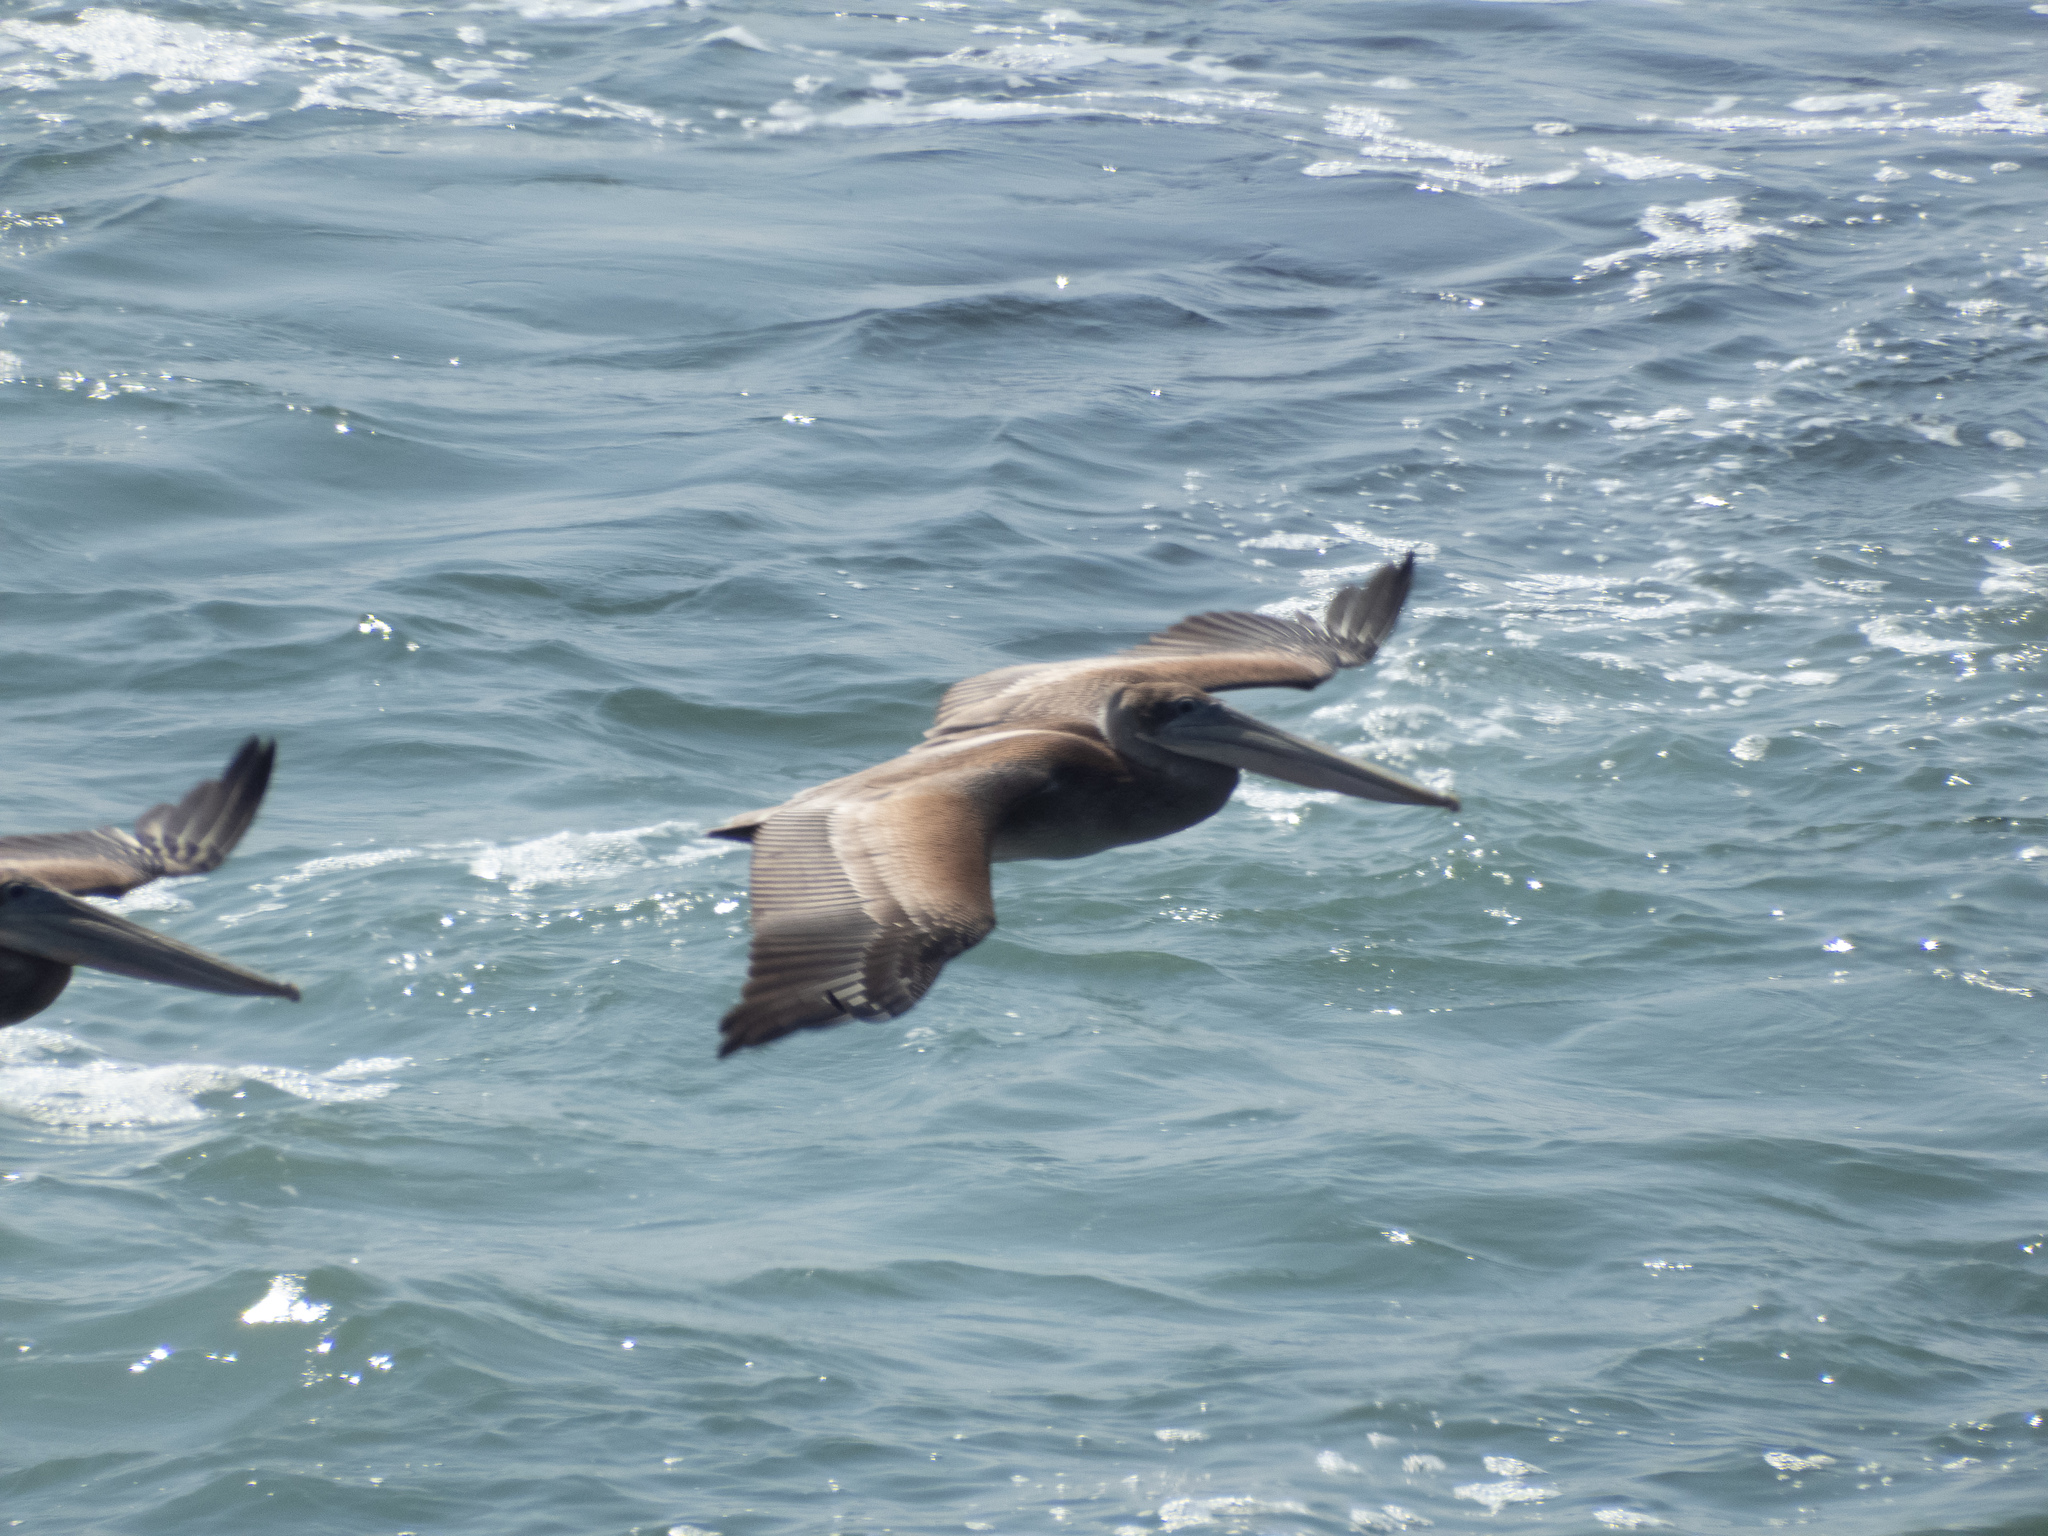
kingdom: Animalia
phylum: Chordata
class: Aves
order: Pelecaniformes
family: Pelecanidae
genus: Pelecanus
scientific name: Pelecanus occidentalis
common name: Brown pelican
